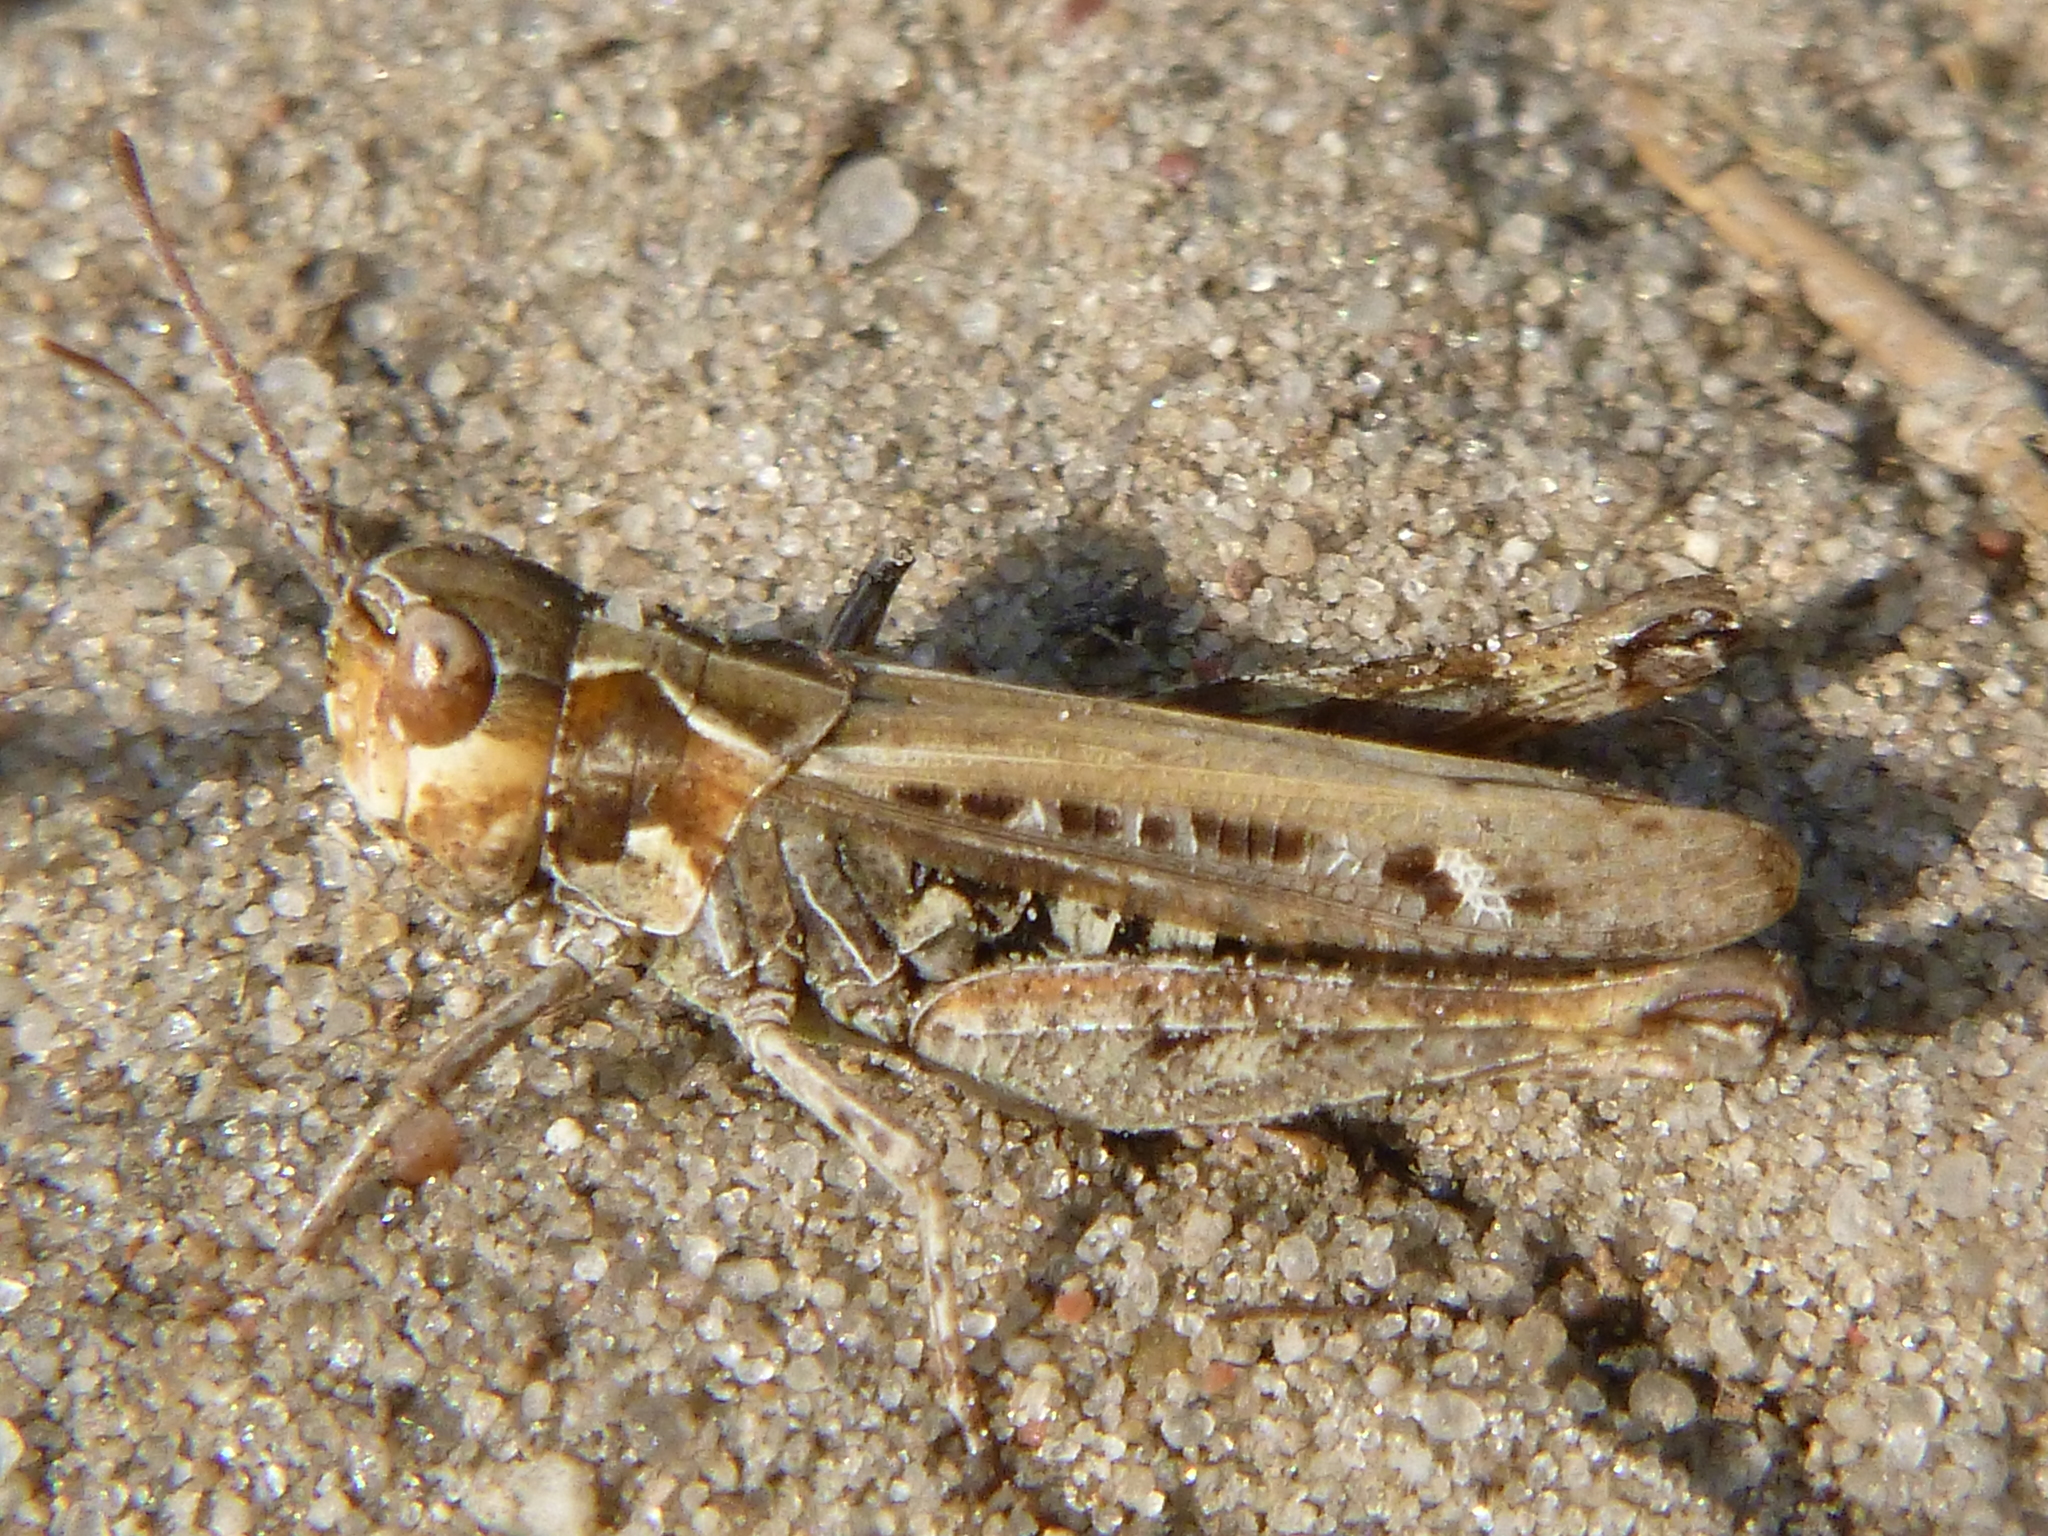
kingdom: Animalia
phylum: Arthropoda
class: Insecta
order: Orthoptera
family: Acrididae
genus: Myrmeleotettix
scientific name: Myrmeleotettix maculatus
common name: Mottled grasshopper
